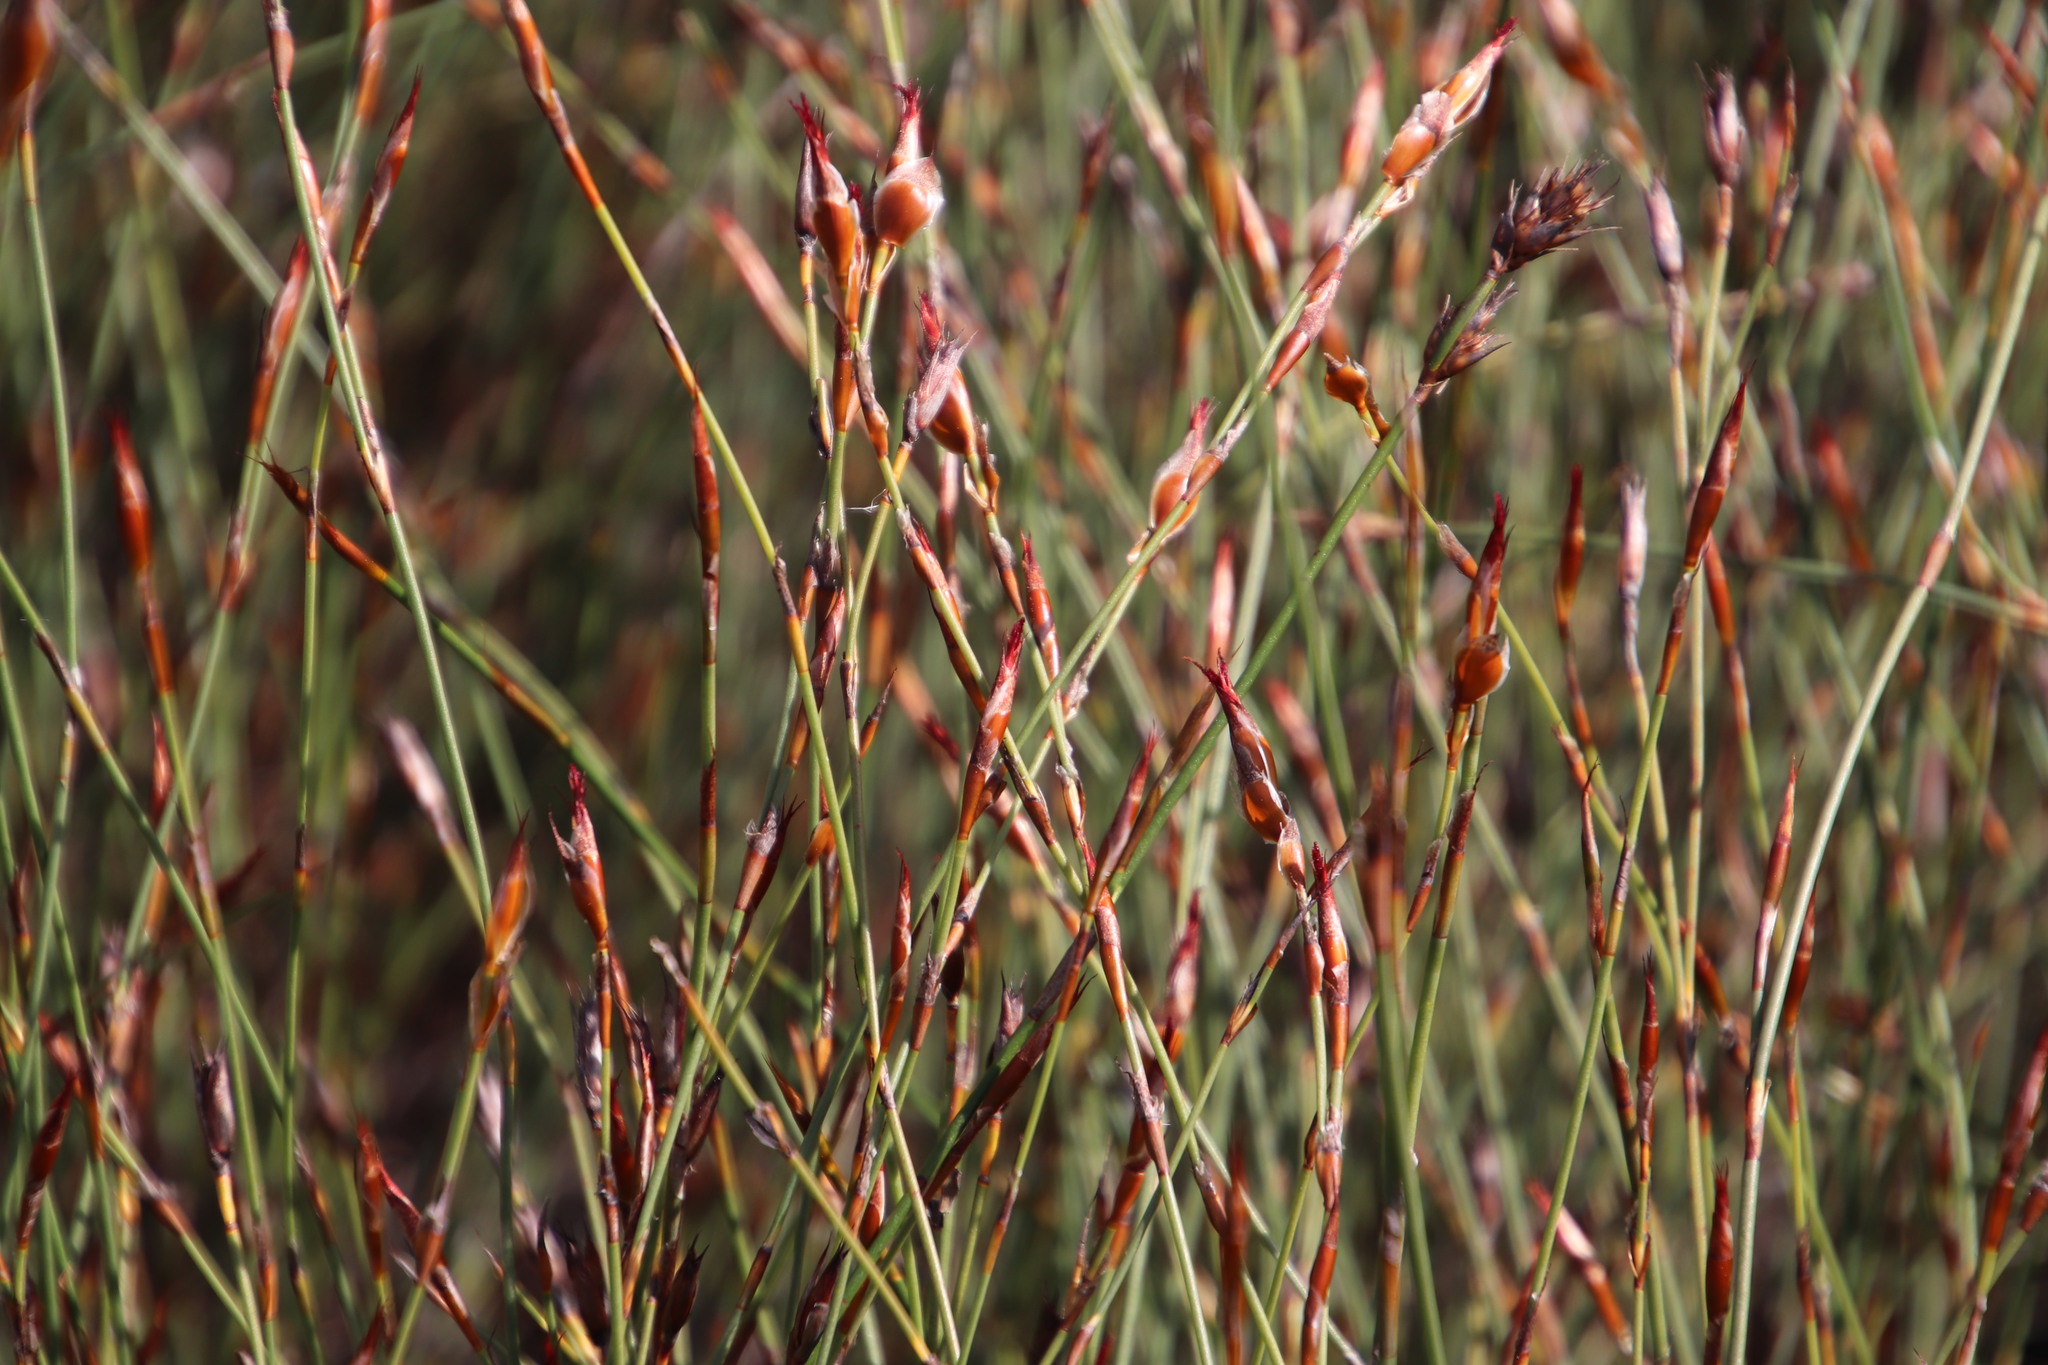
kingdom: Plantae
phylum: Tracheophyta
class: Liliopsida
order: Poales
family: Restionaceae
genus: Willdenowia
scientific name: Willdenowia sulcata
